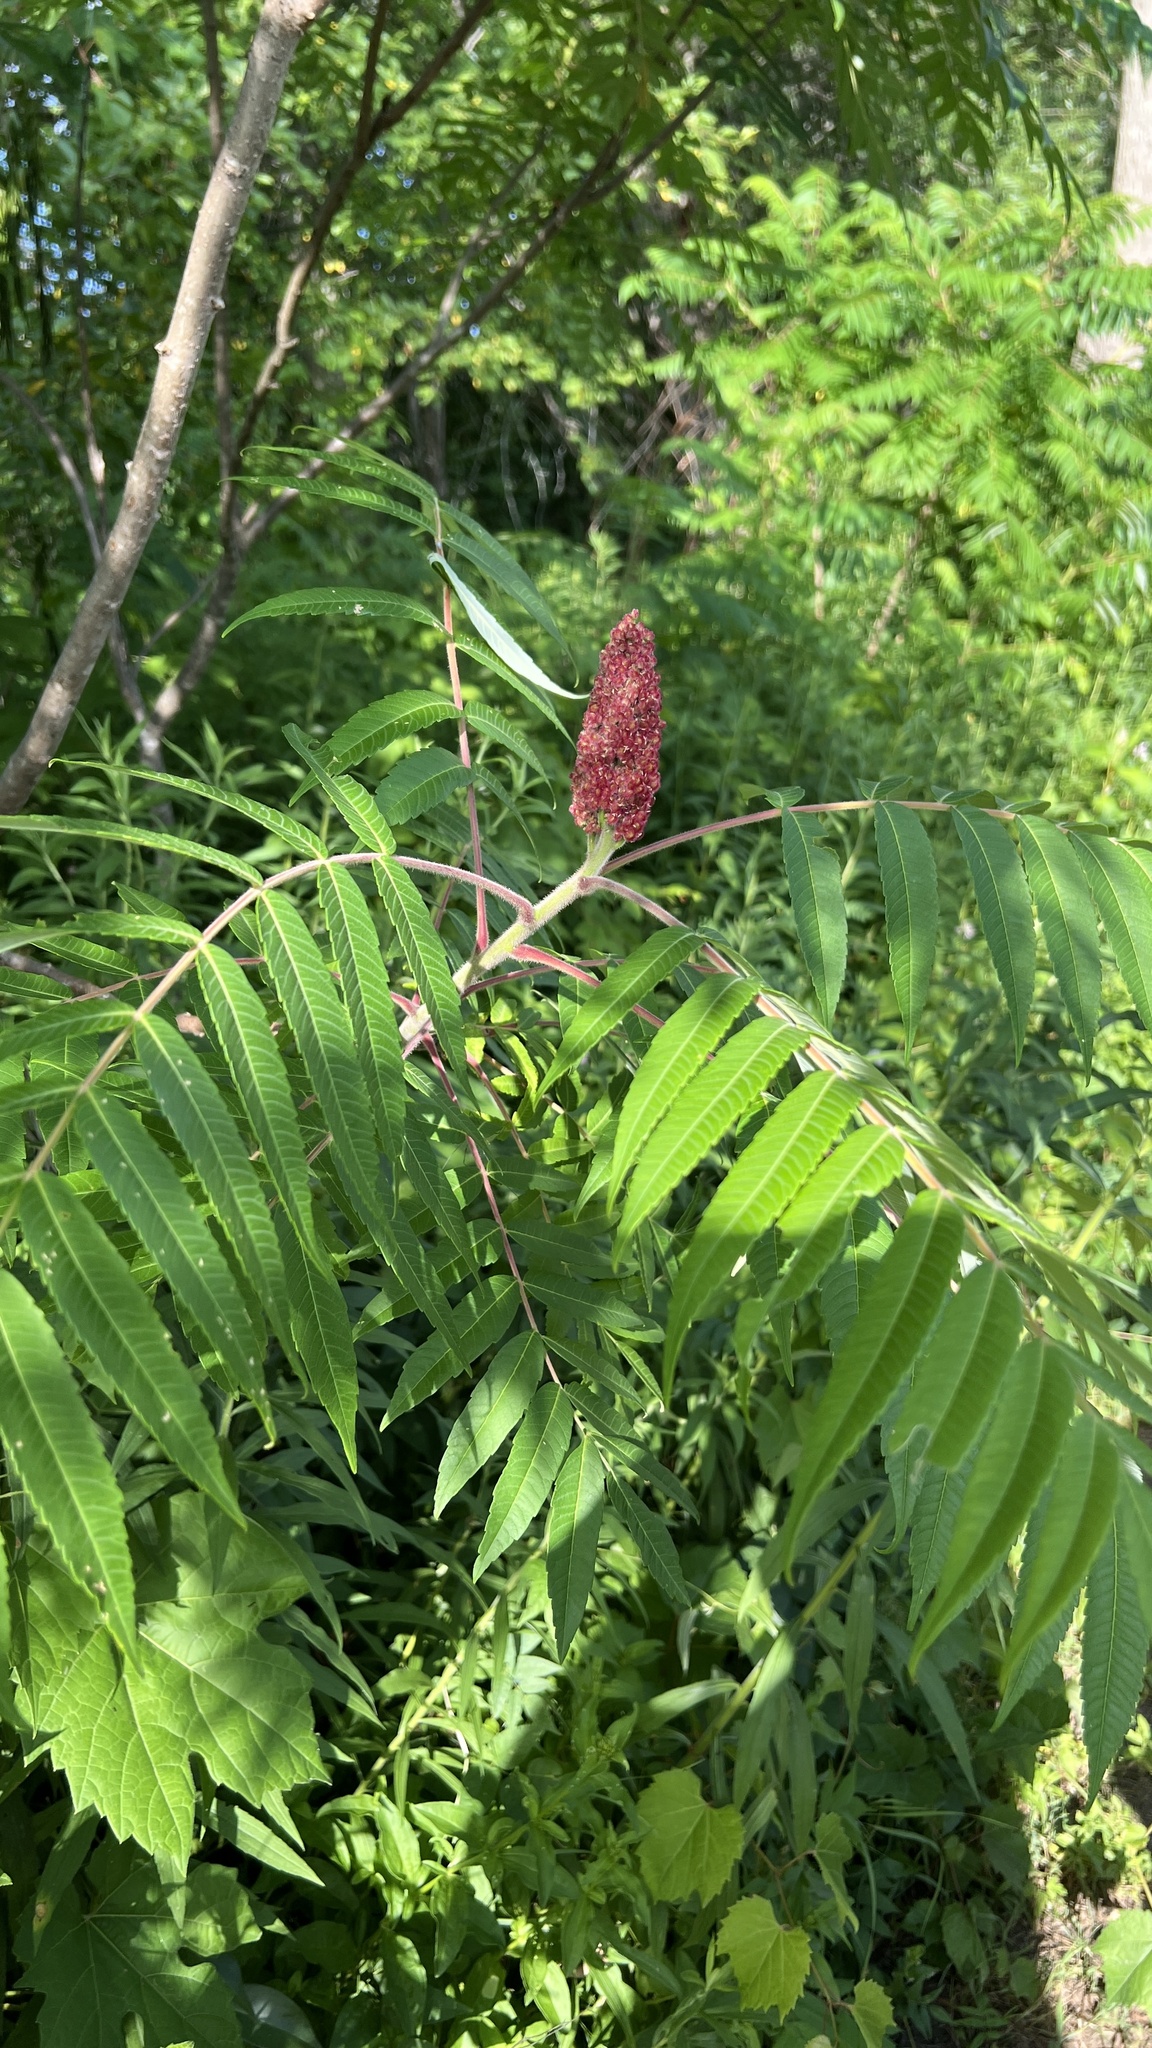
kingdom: Plantae
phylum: Tracheophyta
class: Magnoliopsida
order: Sapindales
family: Anacardiaceae
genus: Rhus
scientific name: Rhus typhina
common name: Staghorn sumac
